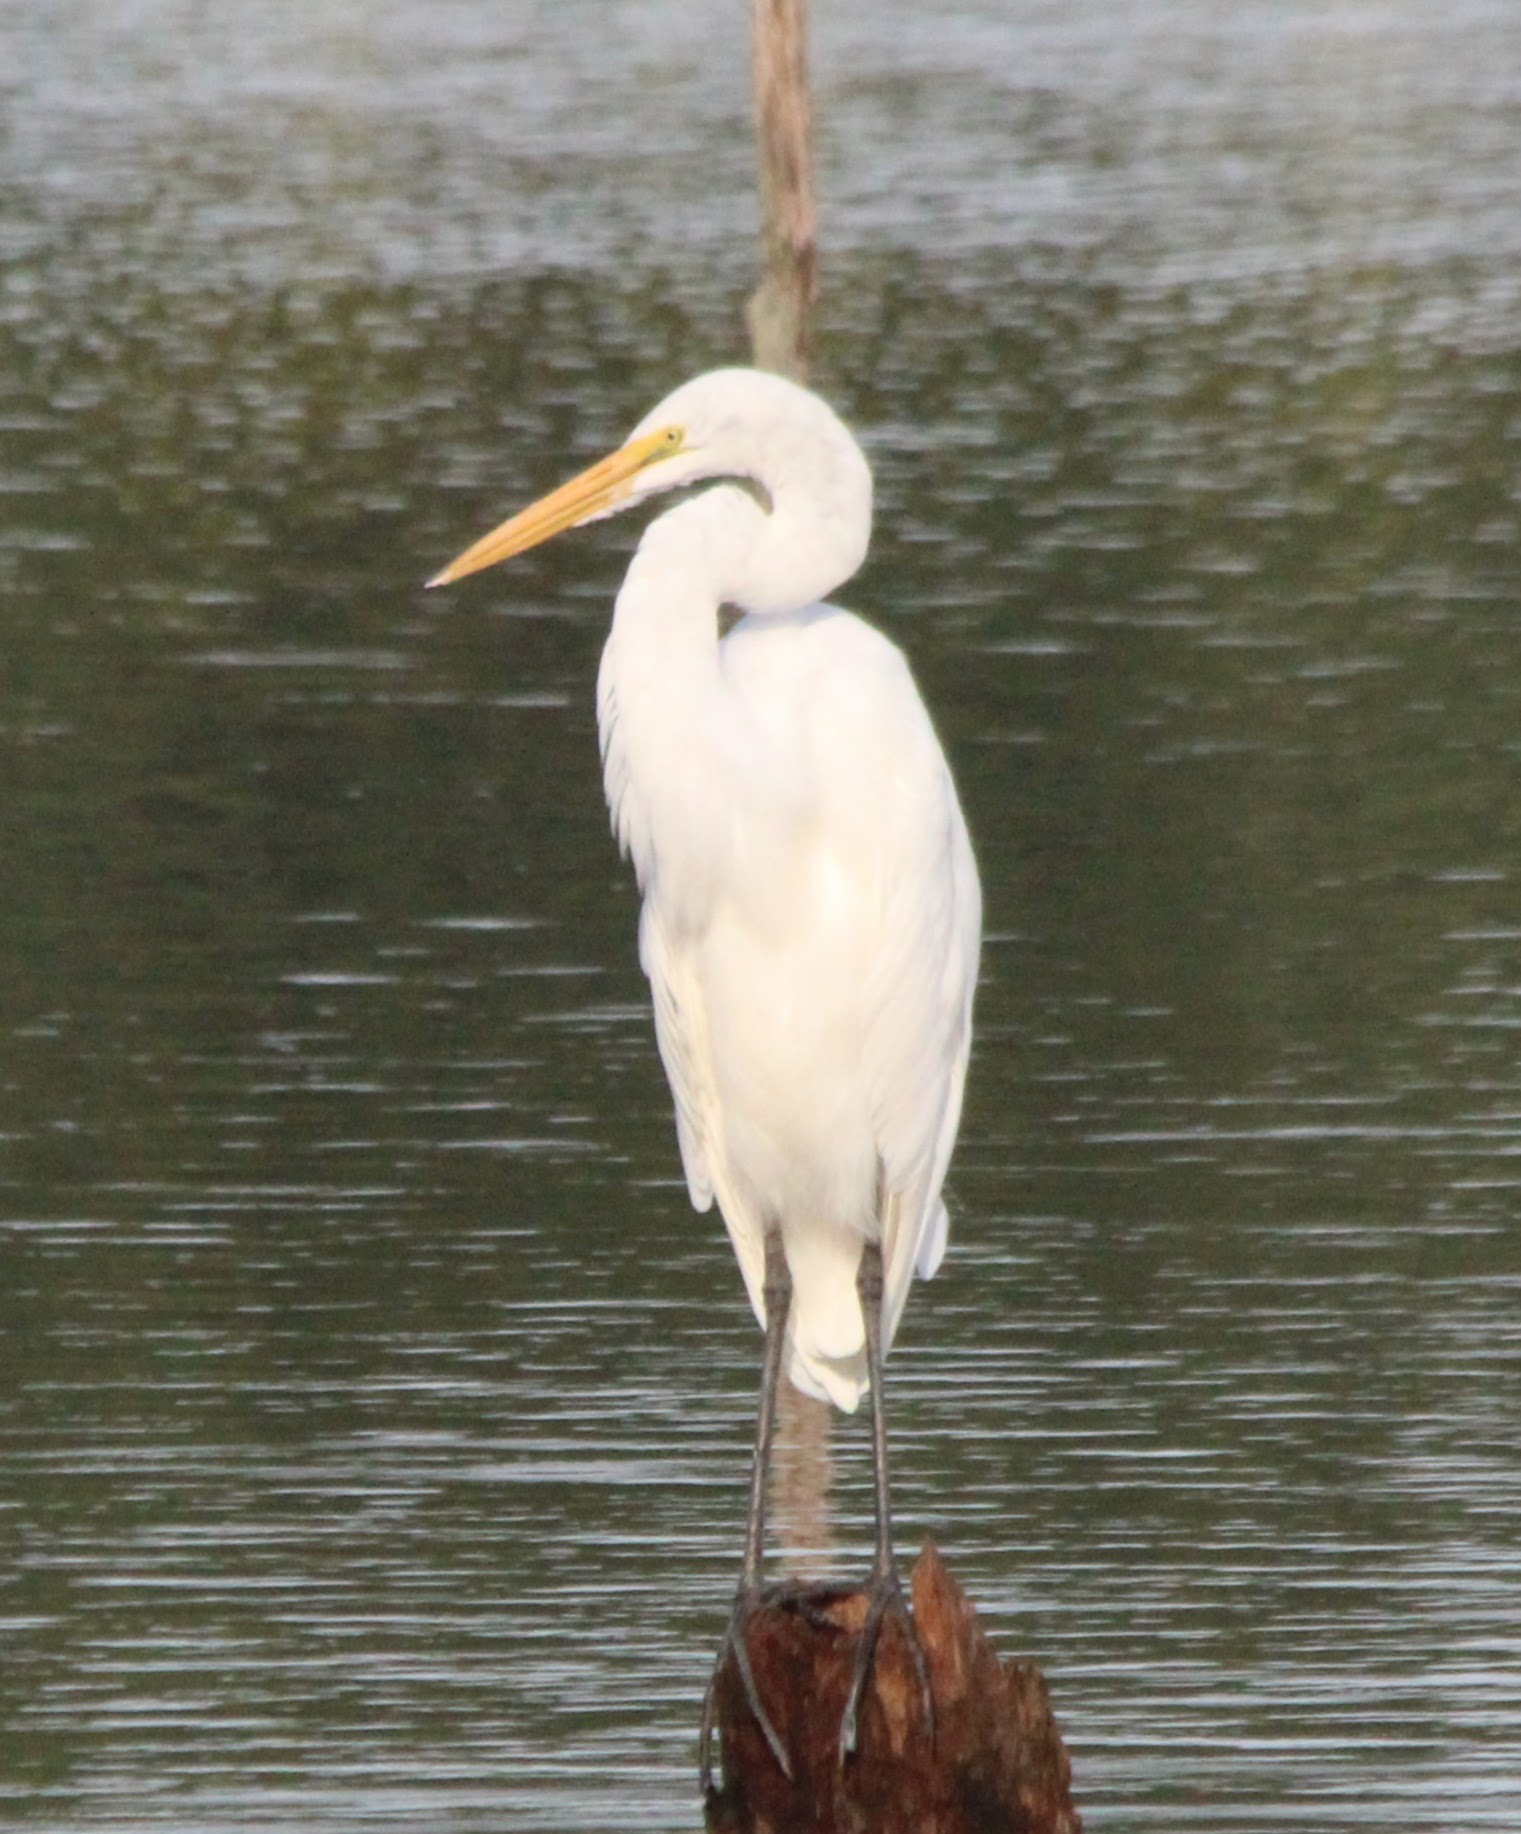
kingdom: Animalia
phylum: Chordata
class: Aves
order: Pelecaniformes
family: Ardeidae
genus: Ardea
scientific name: Ardea alba
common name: Great egret
